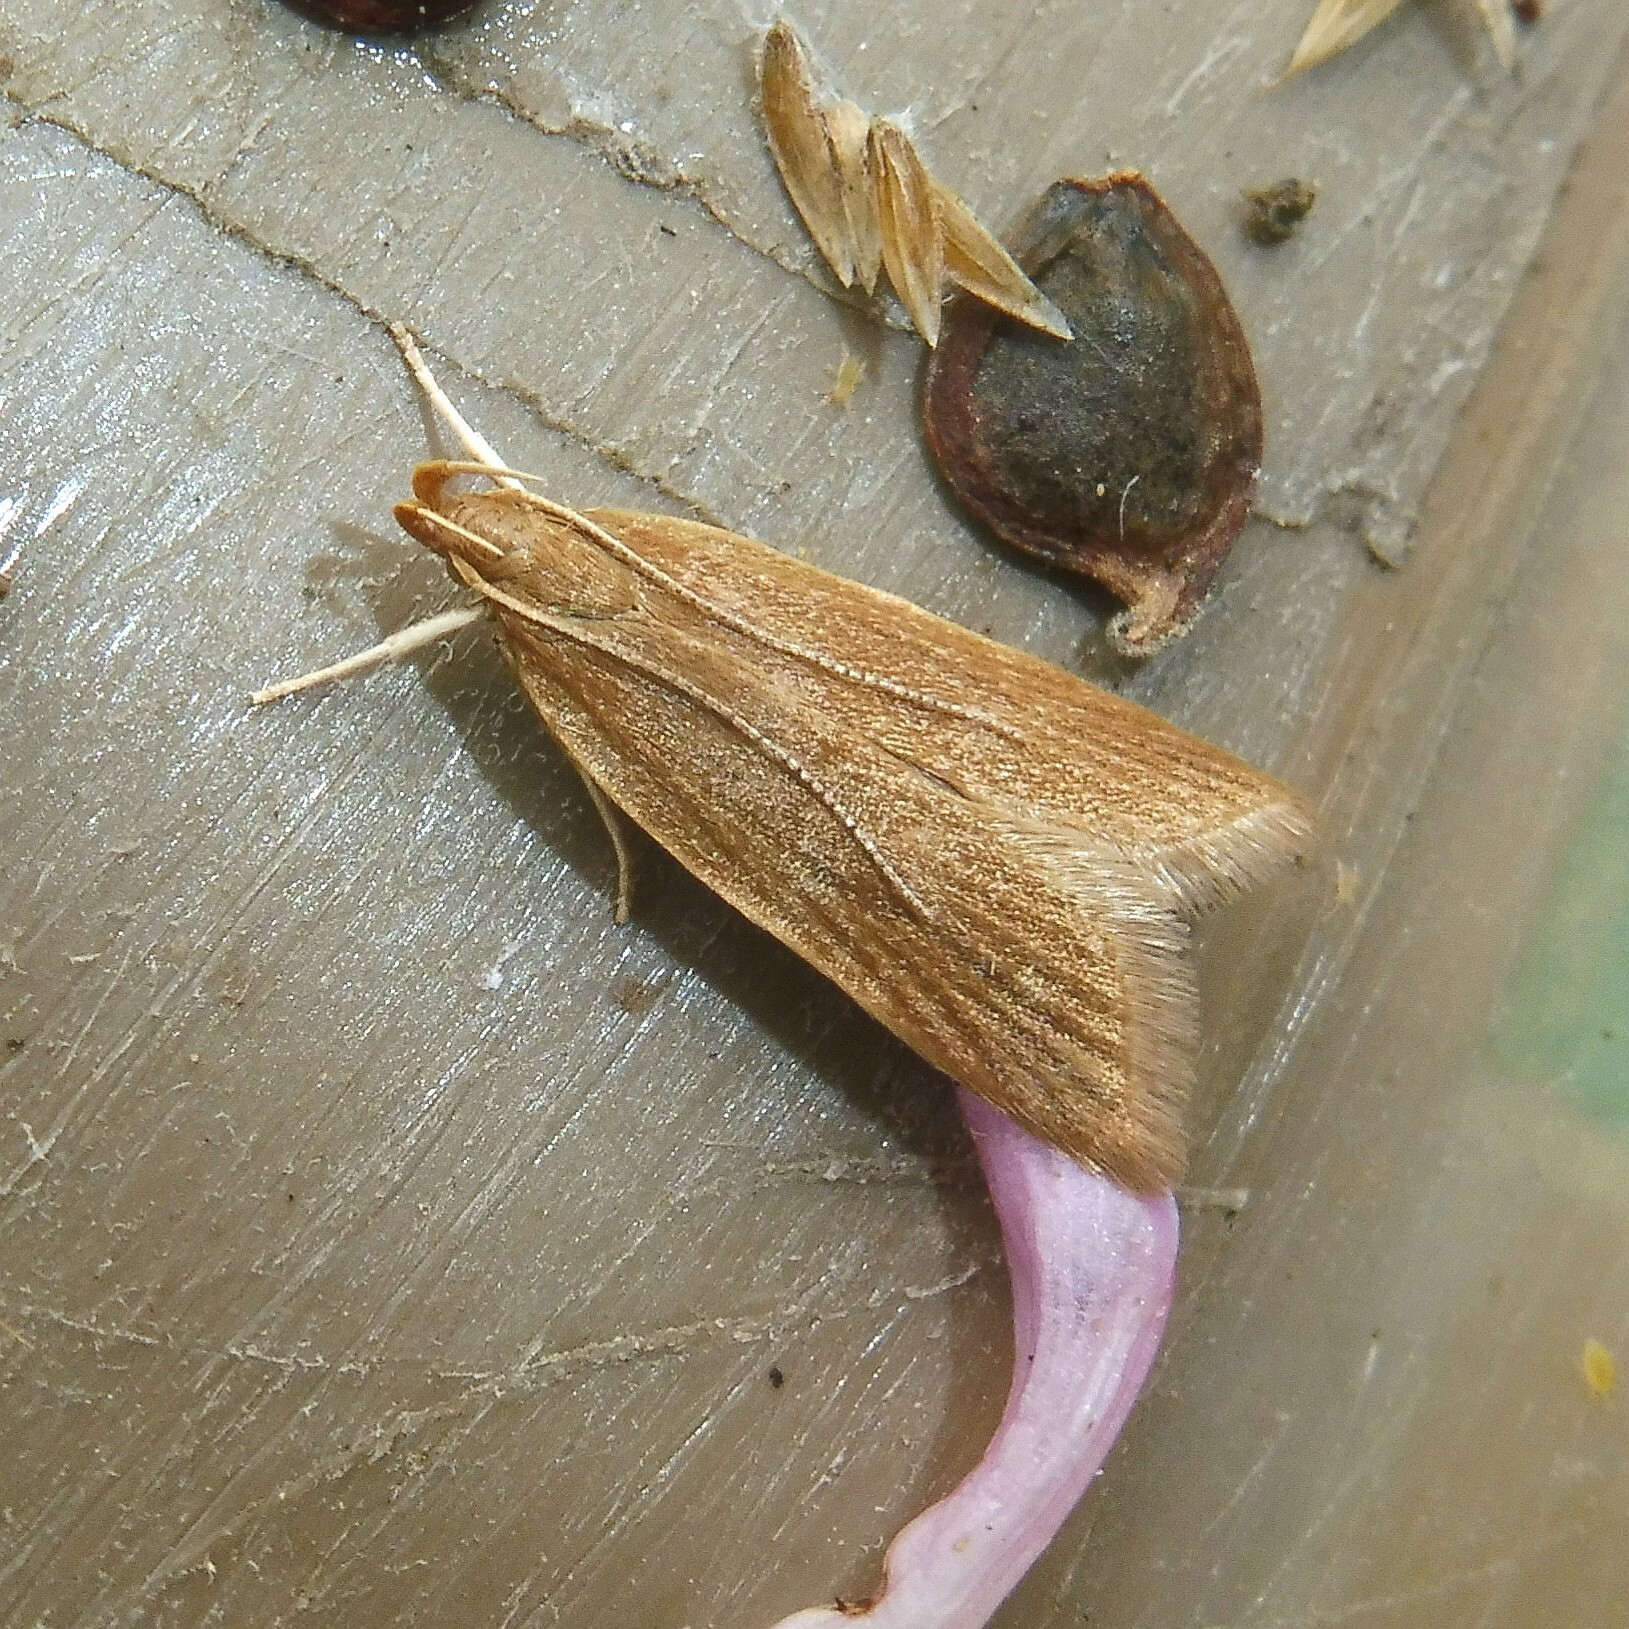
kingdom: Animalia
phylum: Arthropoda
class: Insecta
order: Lepidoptera
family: Gelechiidae
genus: Helcystogramma
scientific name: Helcystogramma rufescens
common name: Orange crest
